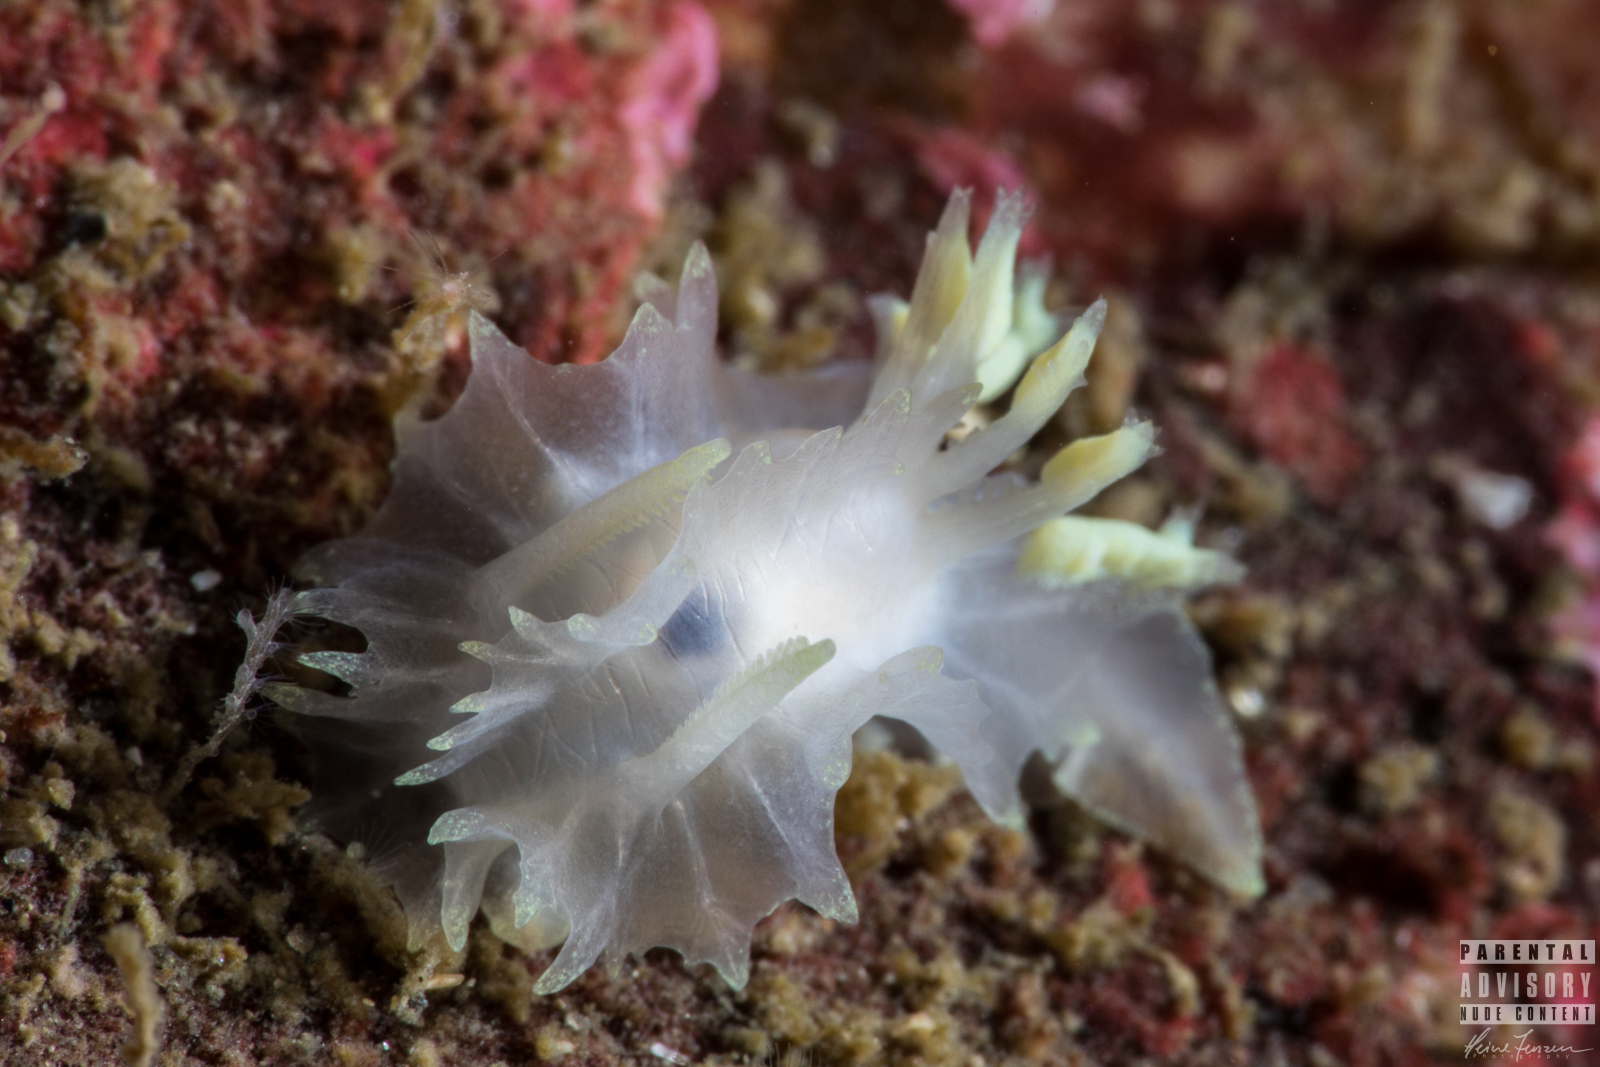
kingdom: Animalia
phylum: Mollusca
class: Gastropoda
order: Nudibranchia
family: Goniodorididae
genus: Lophodoris
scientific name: Lophodoris danielsseni
